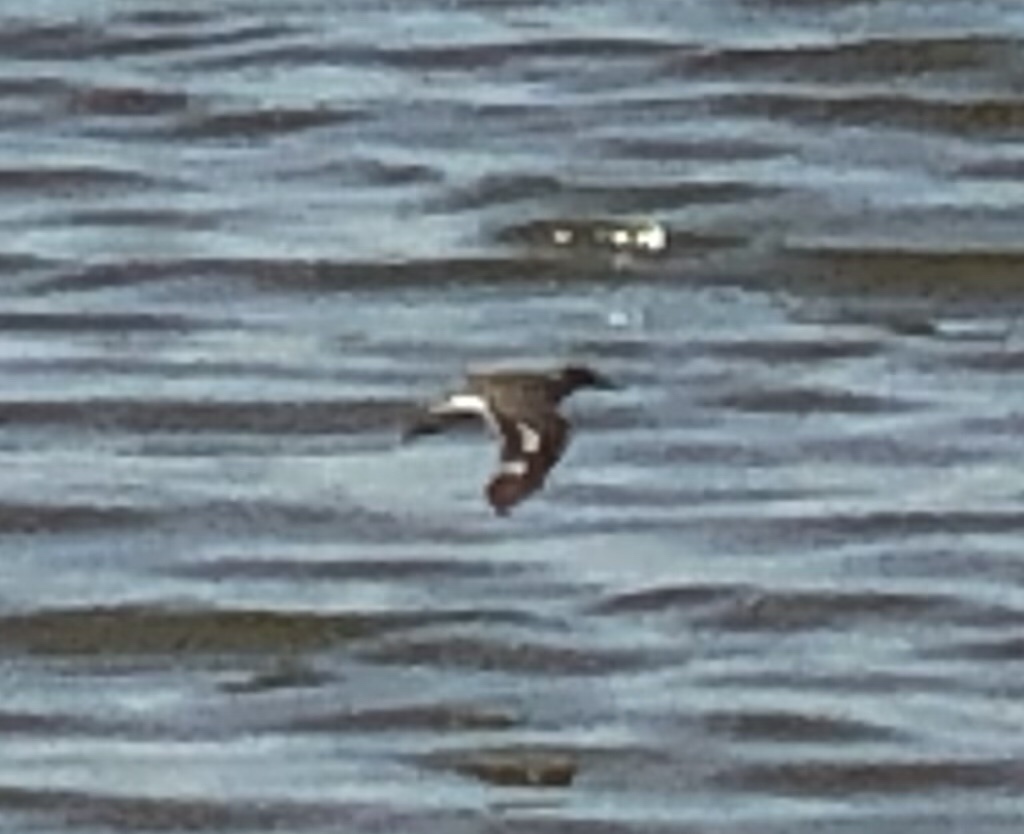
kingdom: Animalia
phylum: Chordata
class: Aves
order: Charadriiformes
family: Scolopacidae
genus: Actitis
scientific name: Actitis macularius
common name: Spotted sandpiper
